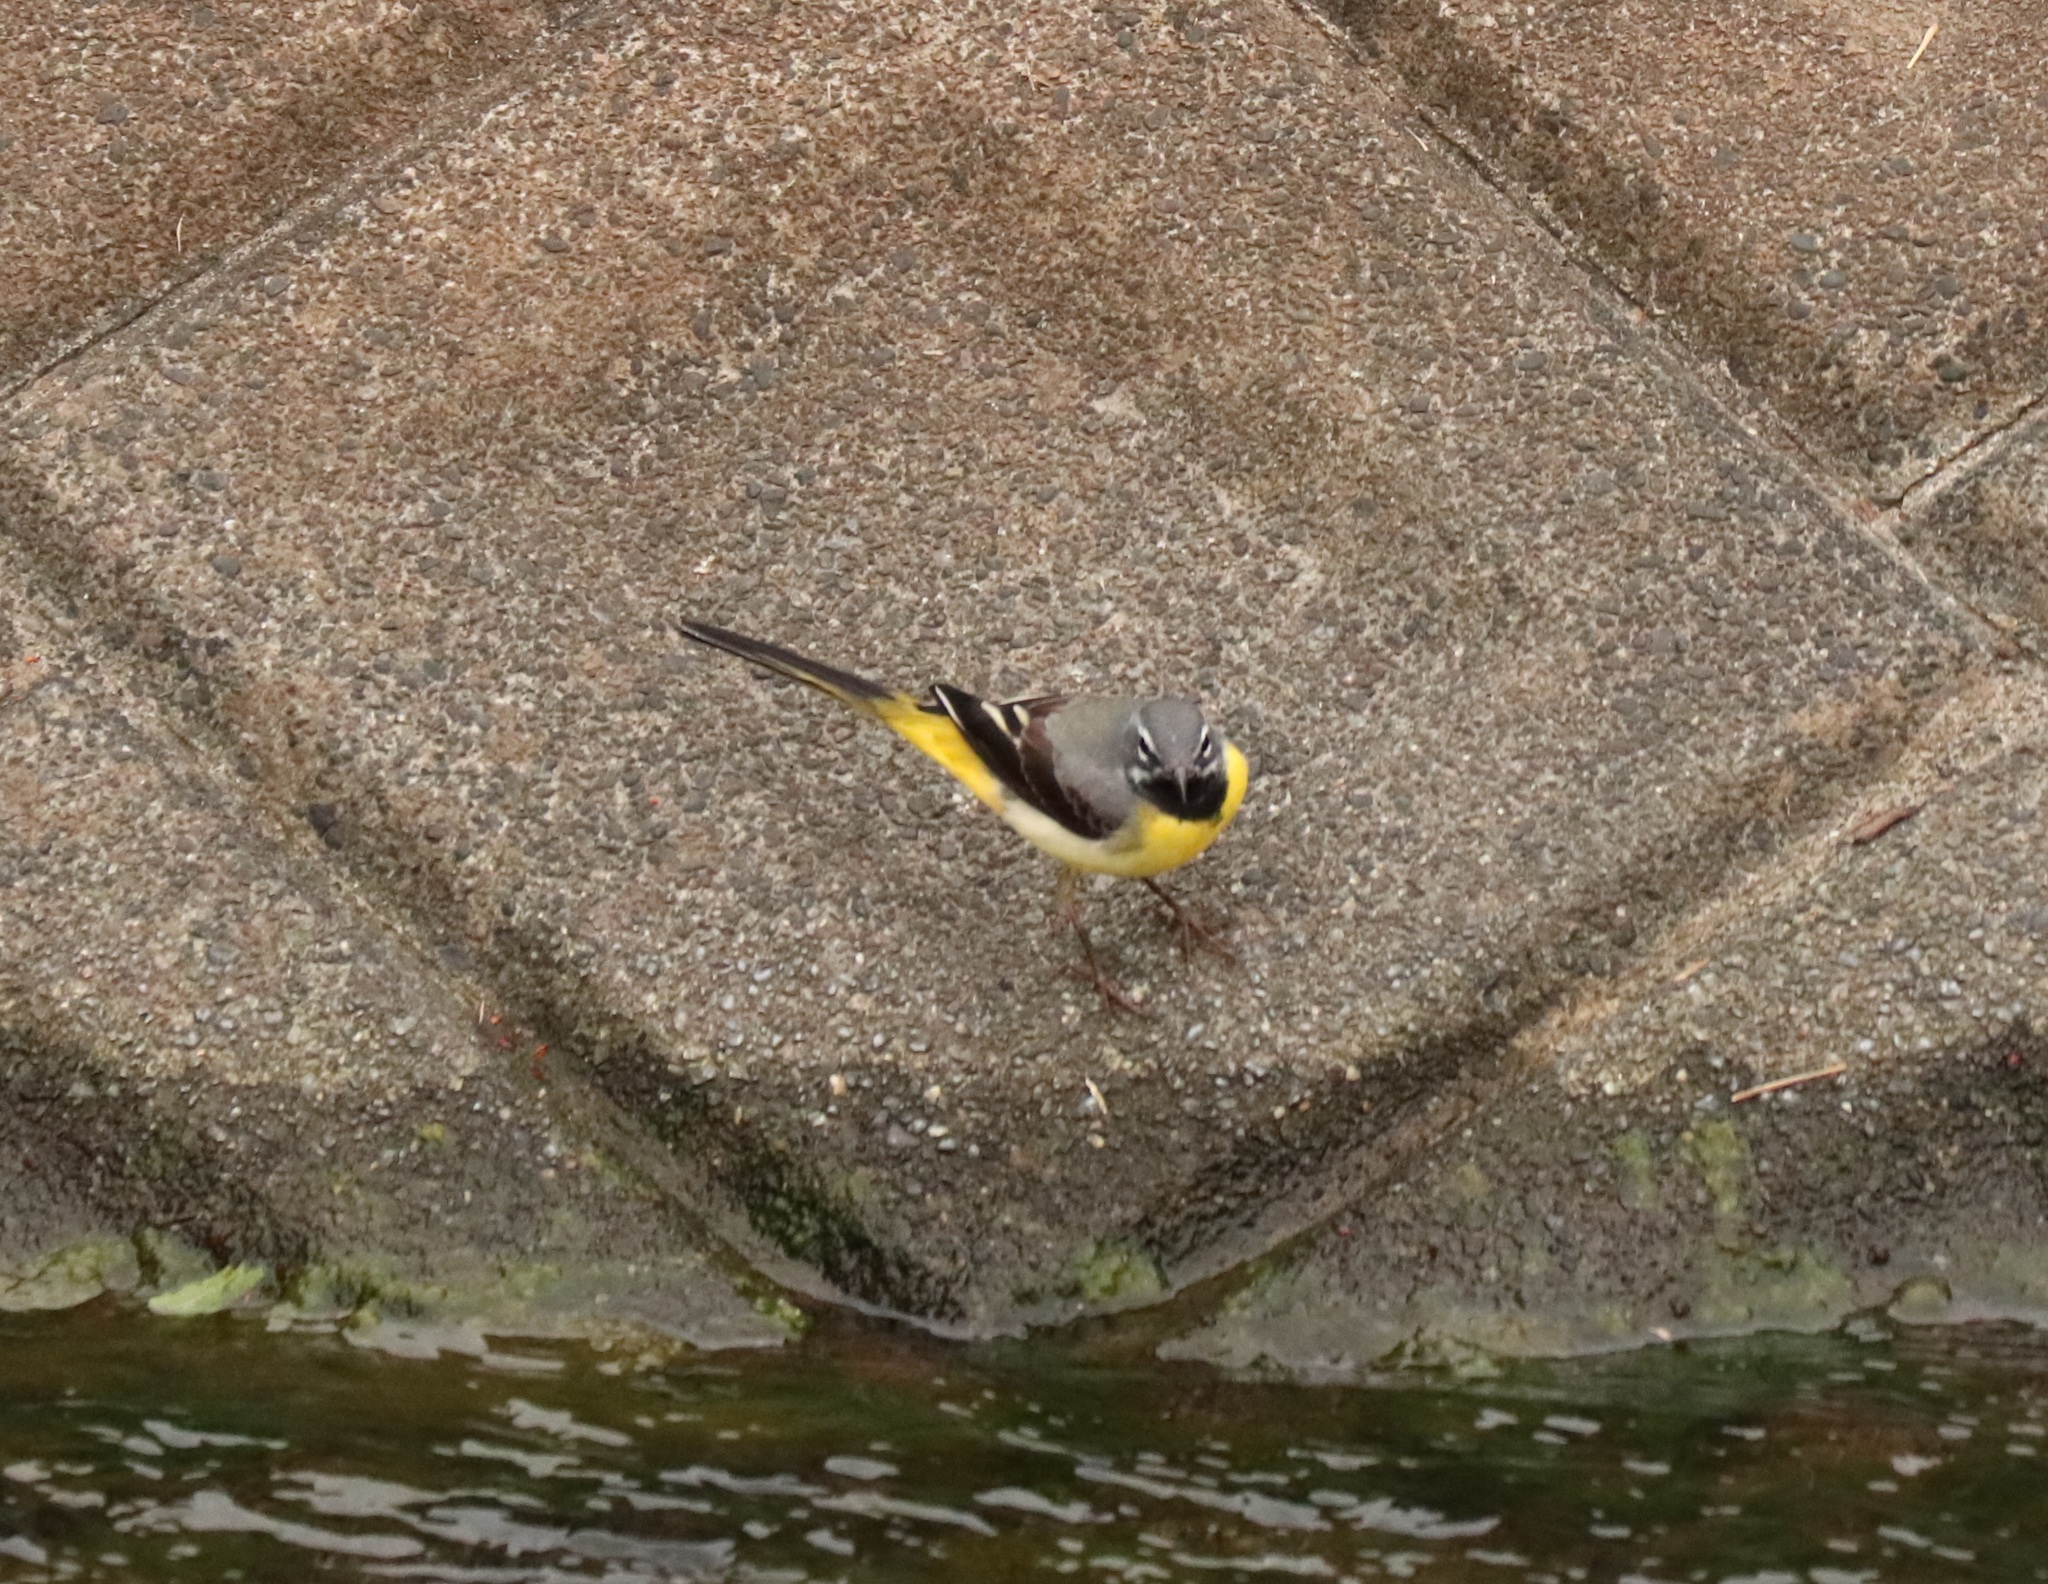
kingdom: Animalia
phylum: Chordata
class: Aves
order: Passeriformes
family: Motacillidae
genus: Motacilla
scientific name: Motacilla cinerea
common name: Grey wagtail
